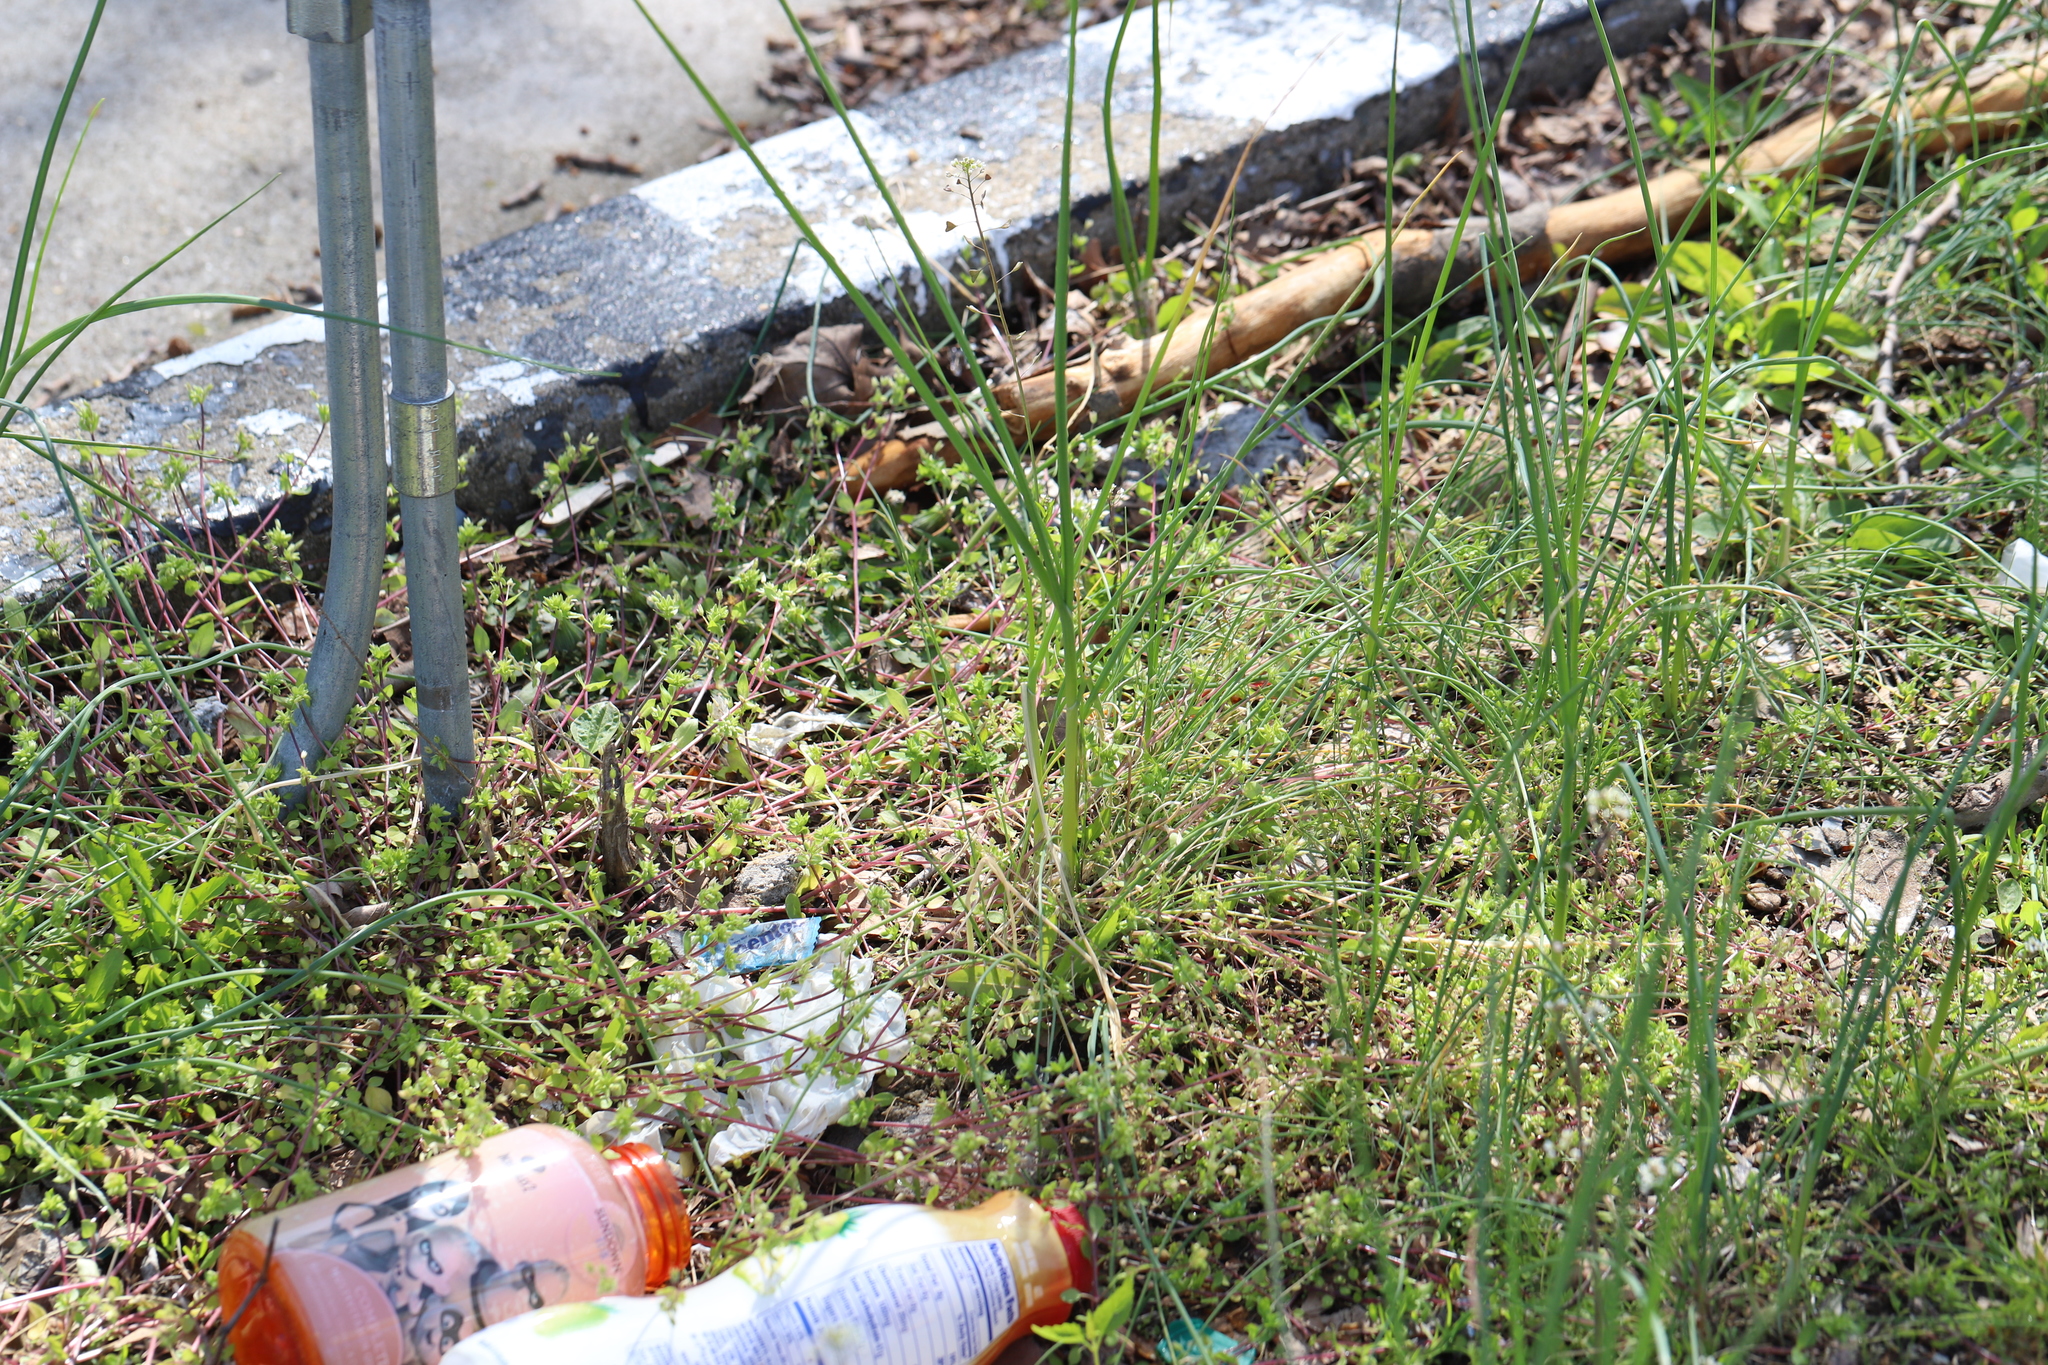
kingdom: Plantae
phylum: Tracheophyta
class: Liliopsida
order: Asparagales
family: Amaryllidaceae
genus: Allium
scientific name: Allium vineale
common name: Crow garlic
